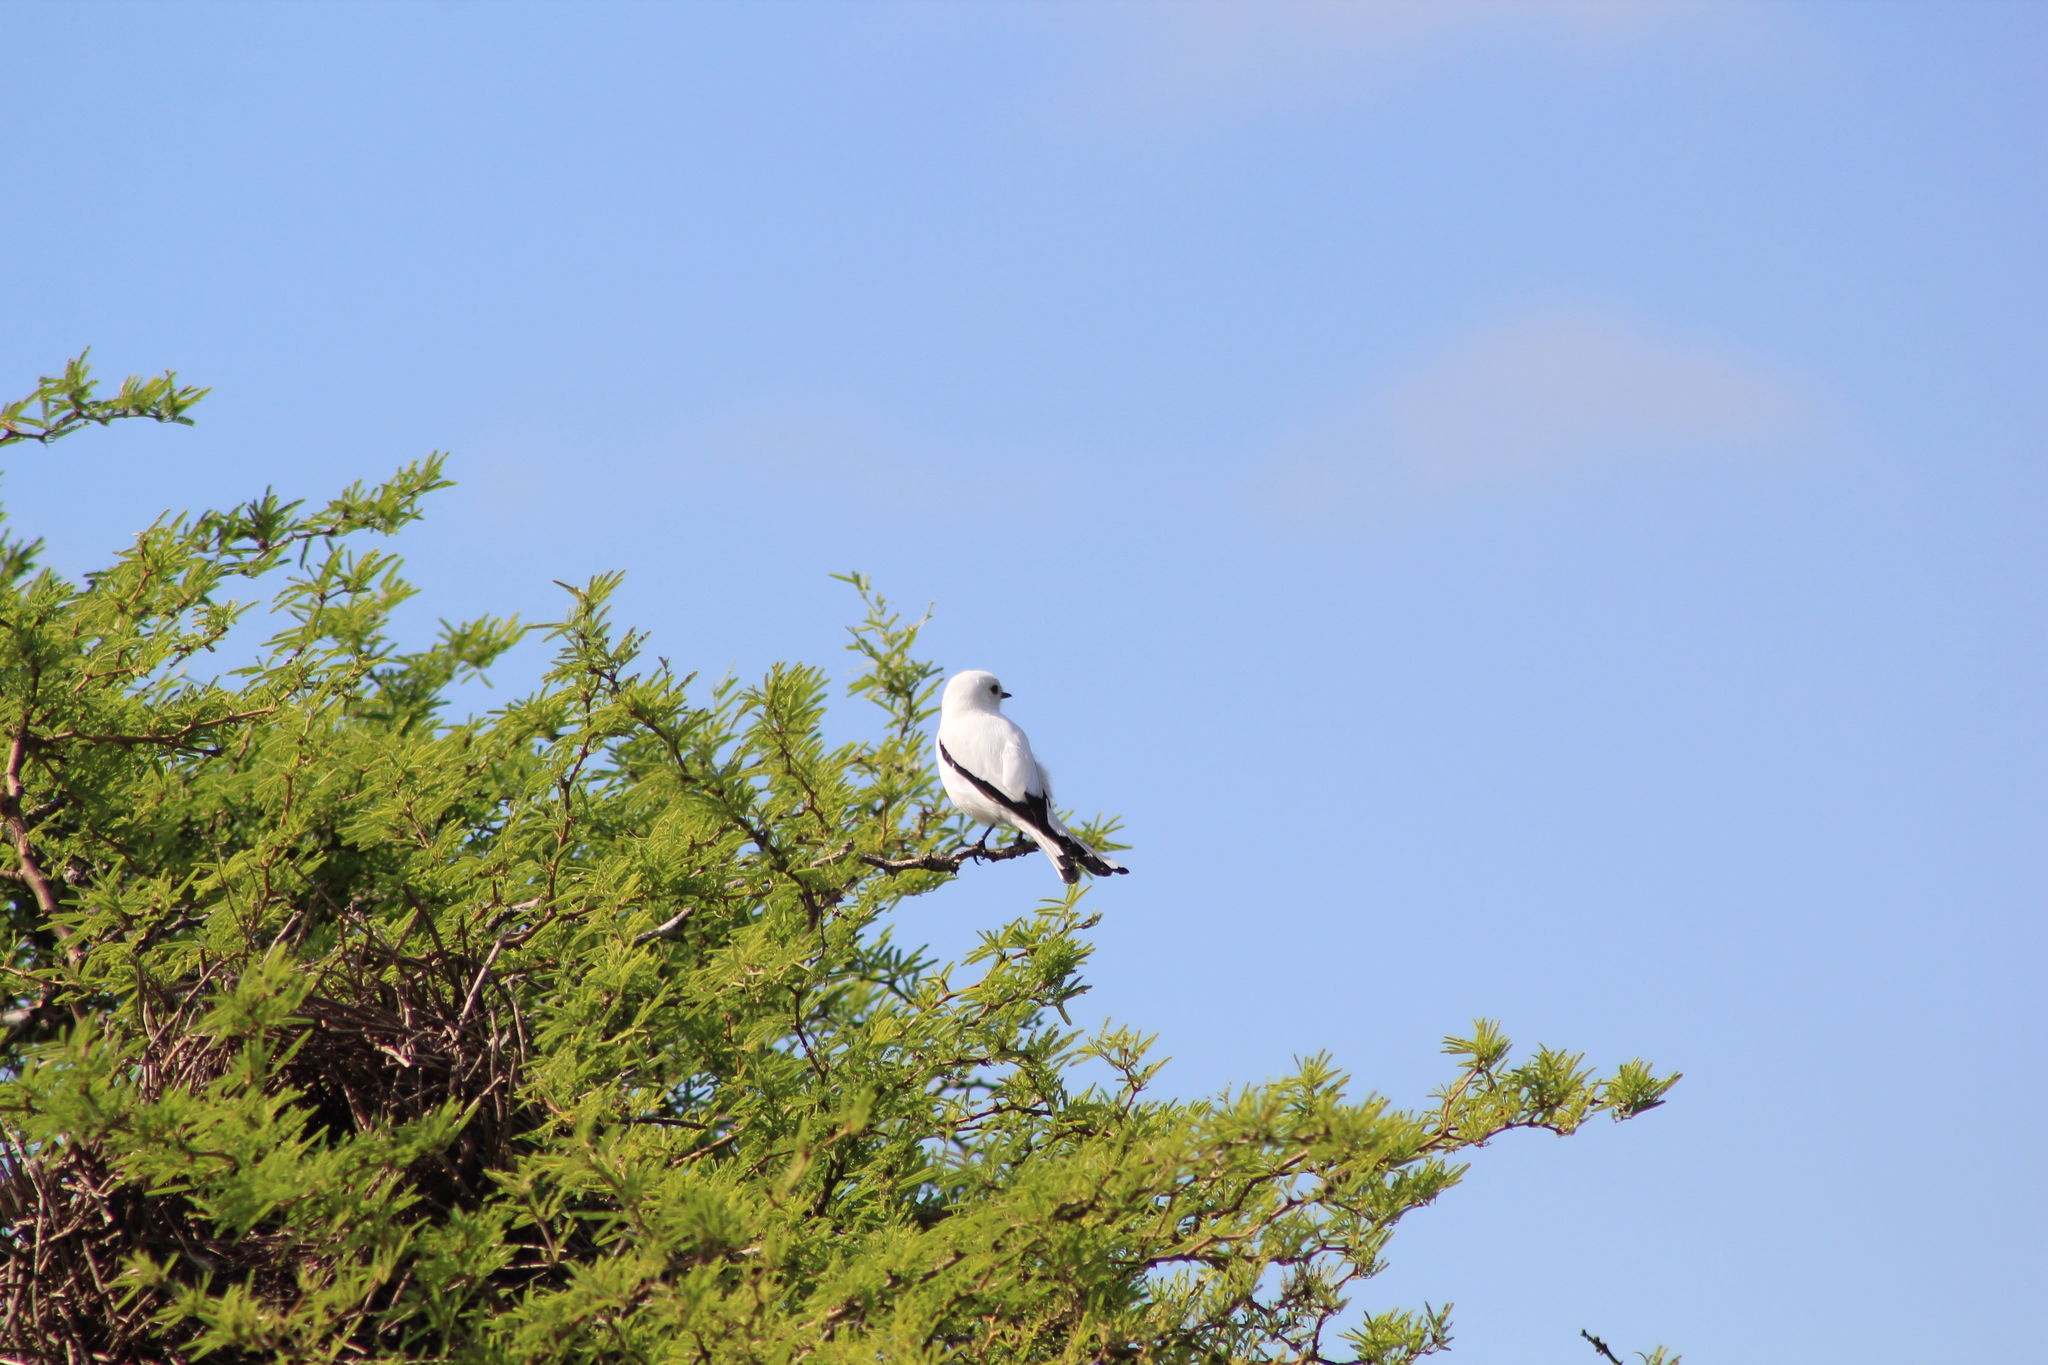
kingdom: Animalia
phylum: Chordata
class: Aves
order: Passeriformes
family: Tyrannidae
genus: Xolmis
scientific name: Xolmis irupero
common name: White monjita
